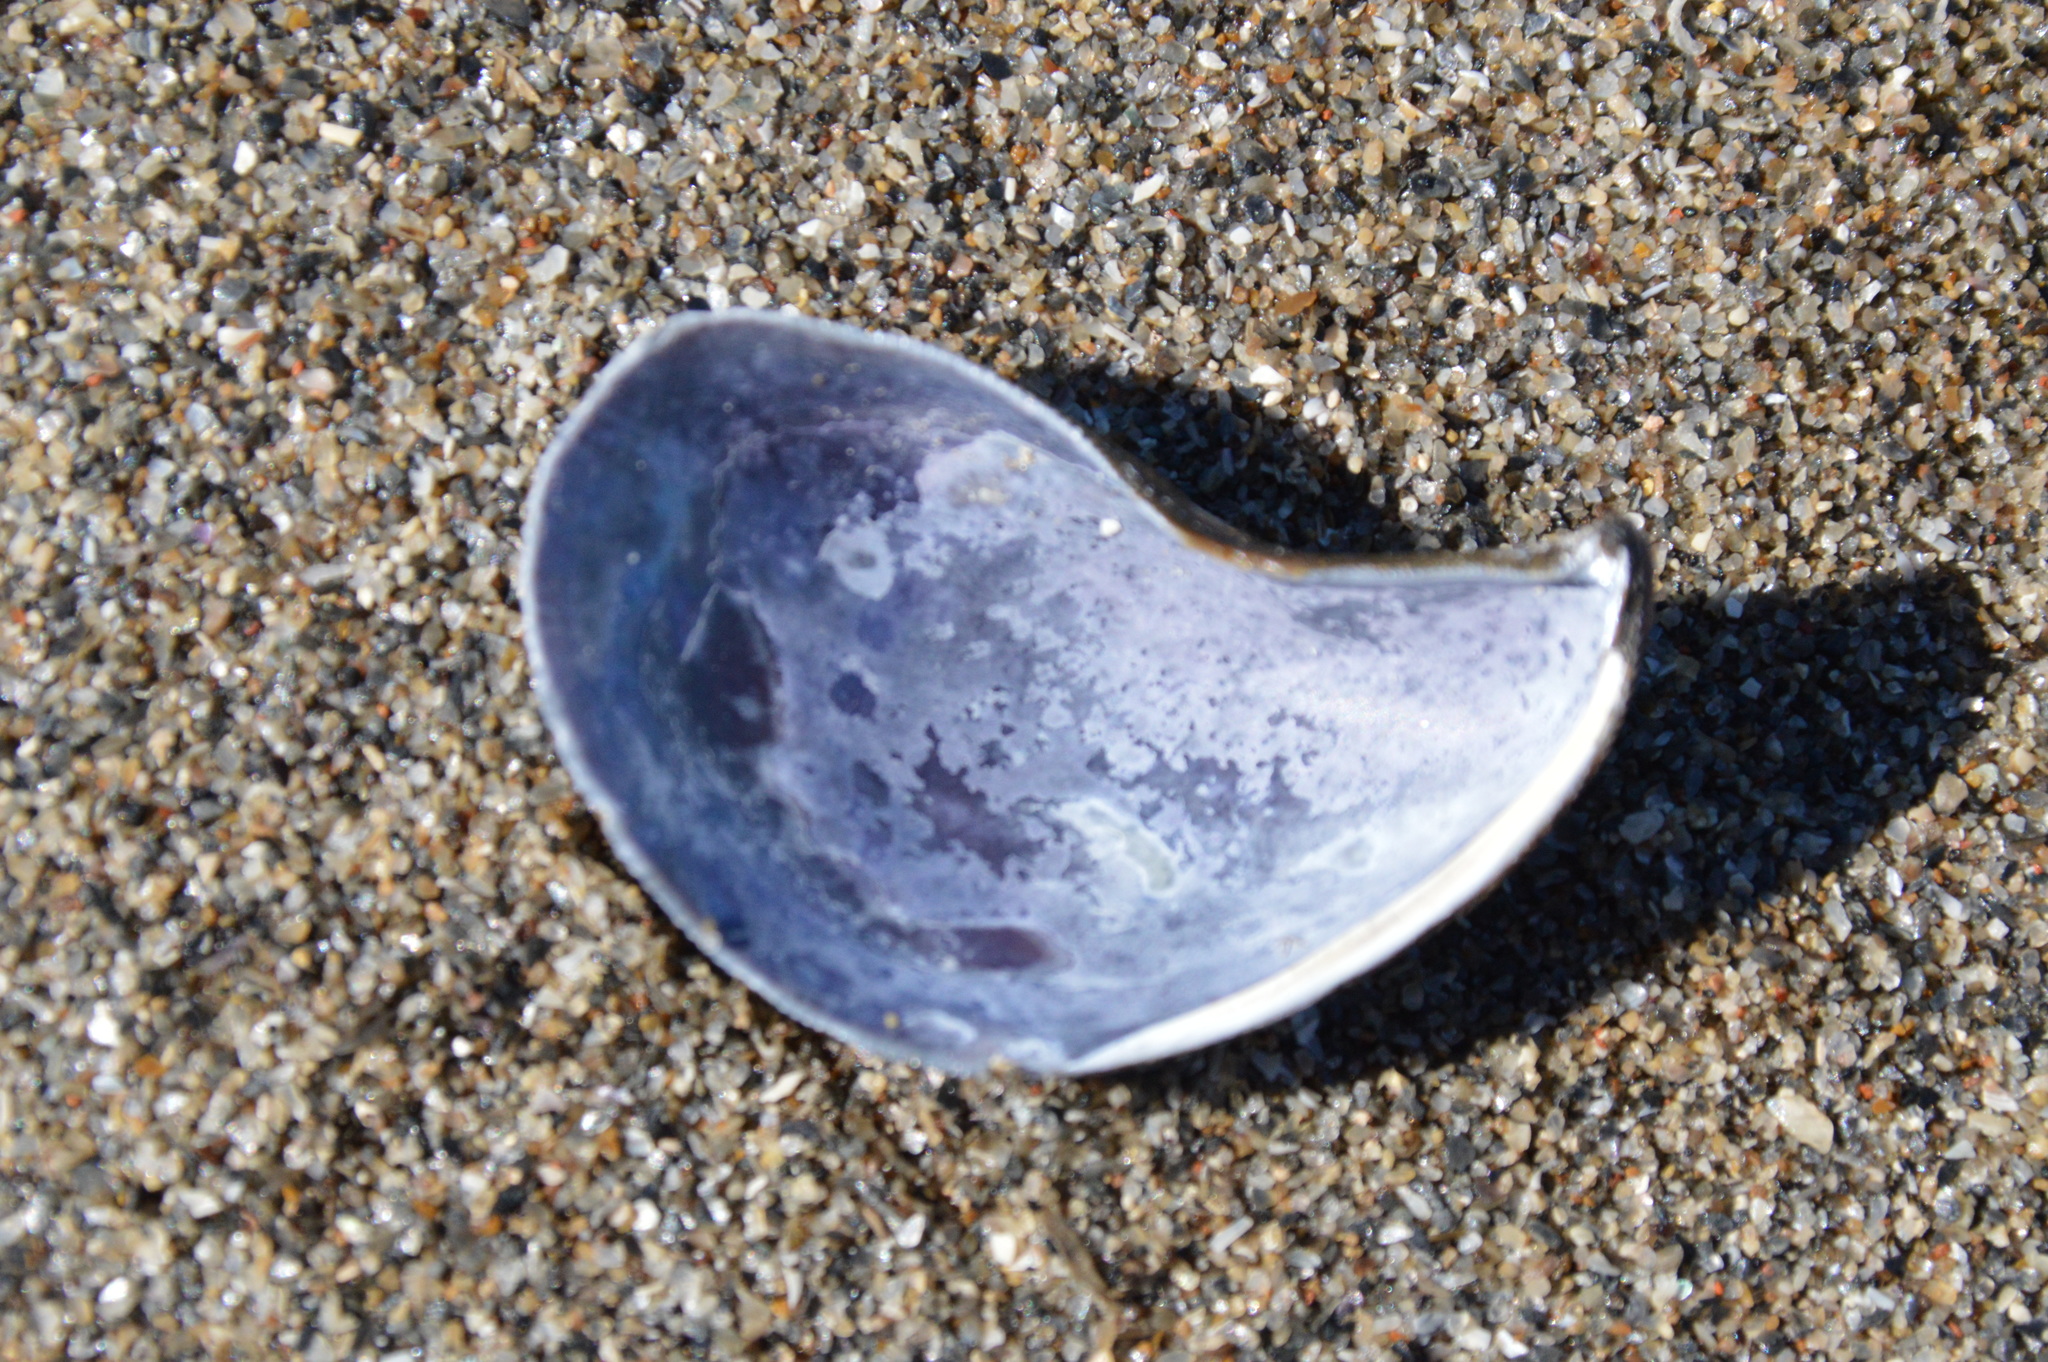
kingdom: Animalia
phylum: Mollusca
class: Bivalvia
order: Mytilida
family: Mytilidae
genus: Ischadium
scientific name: Ischadium recurvum
